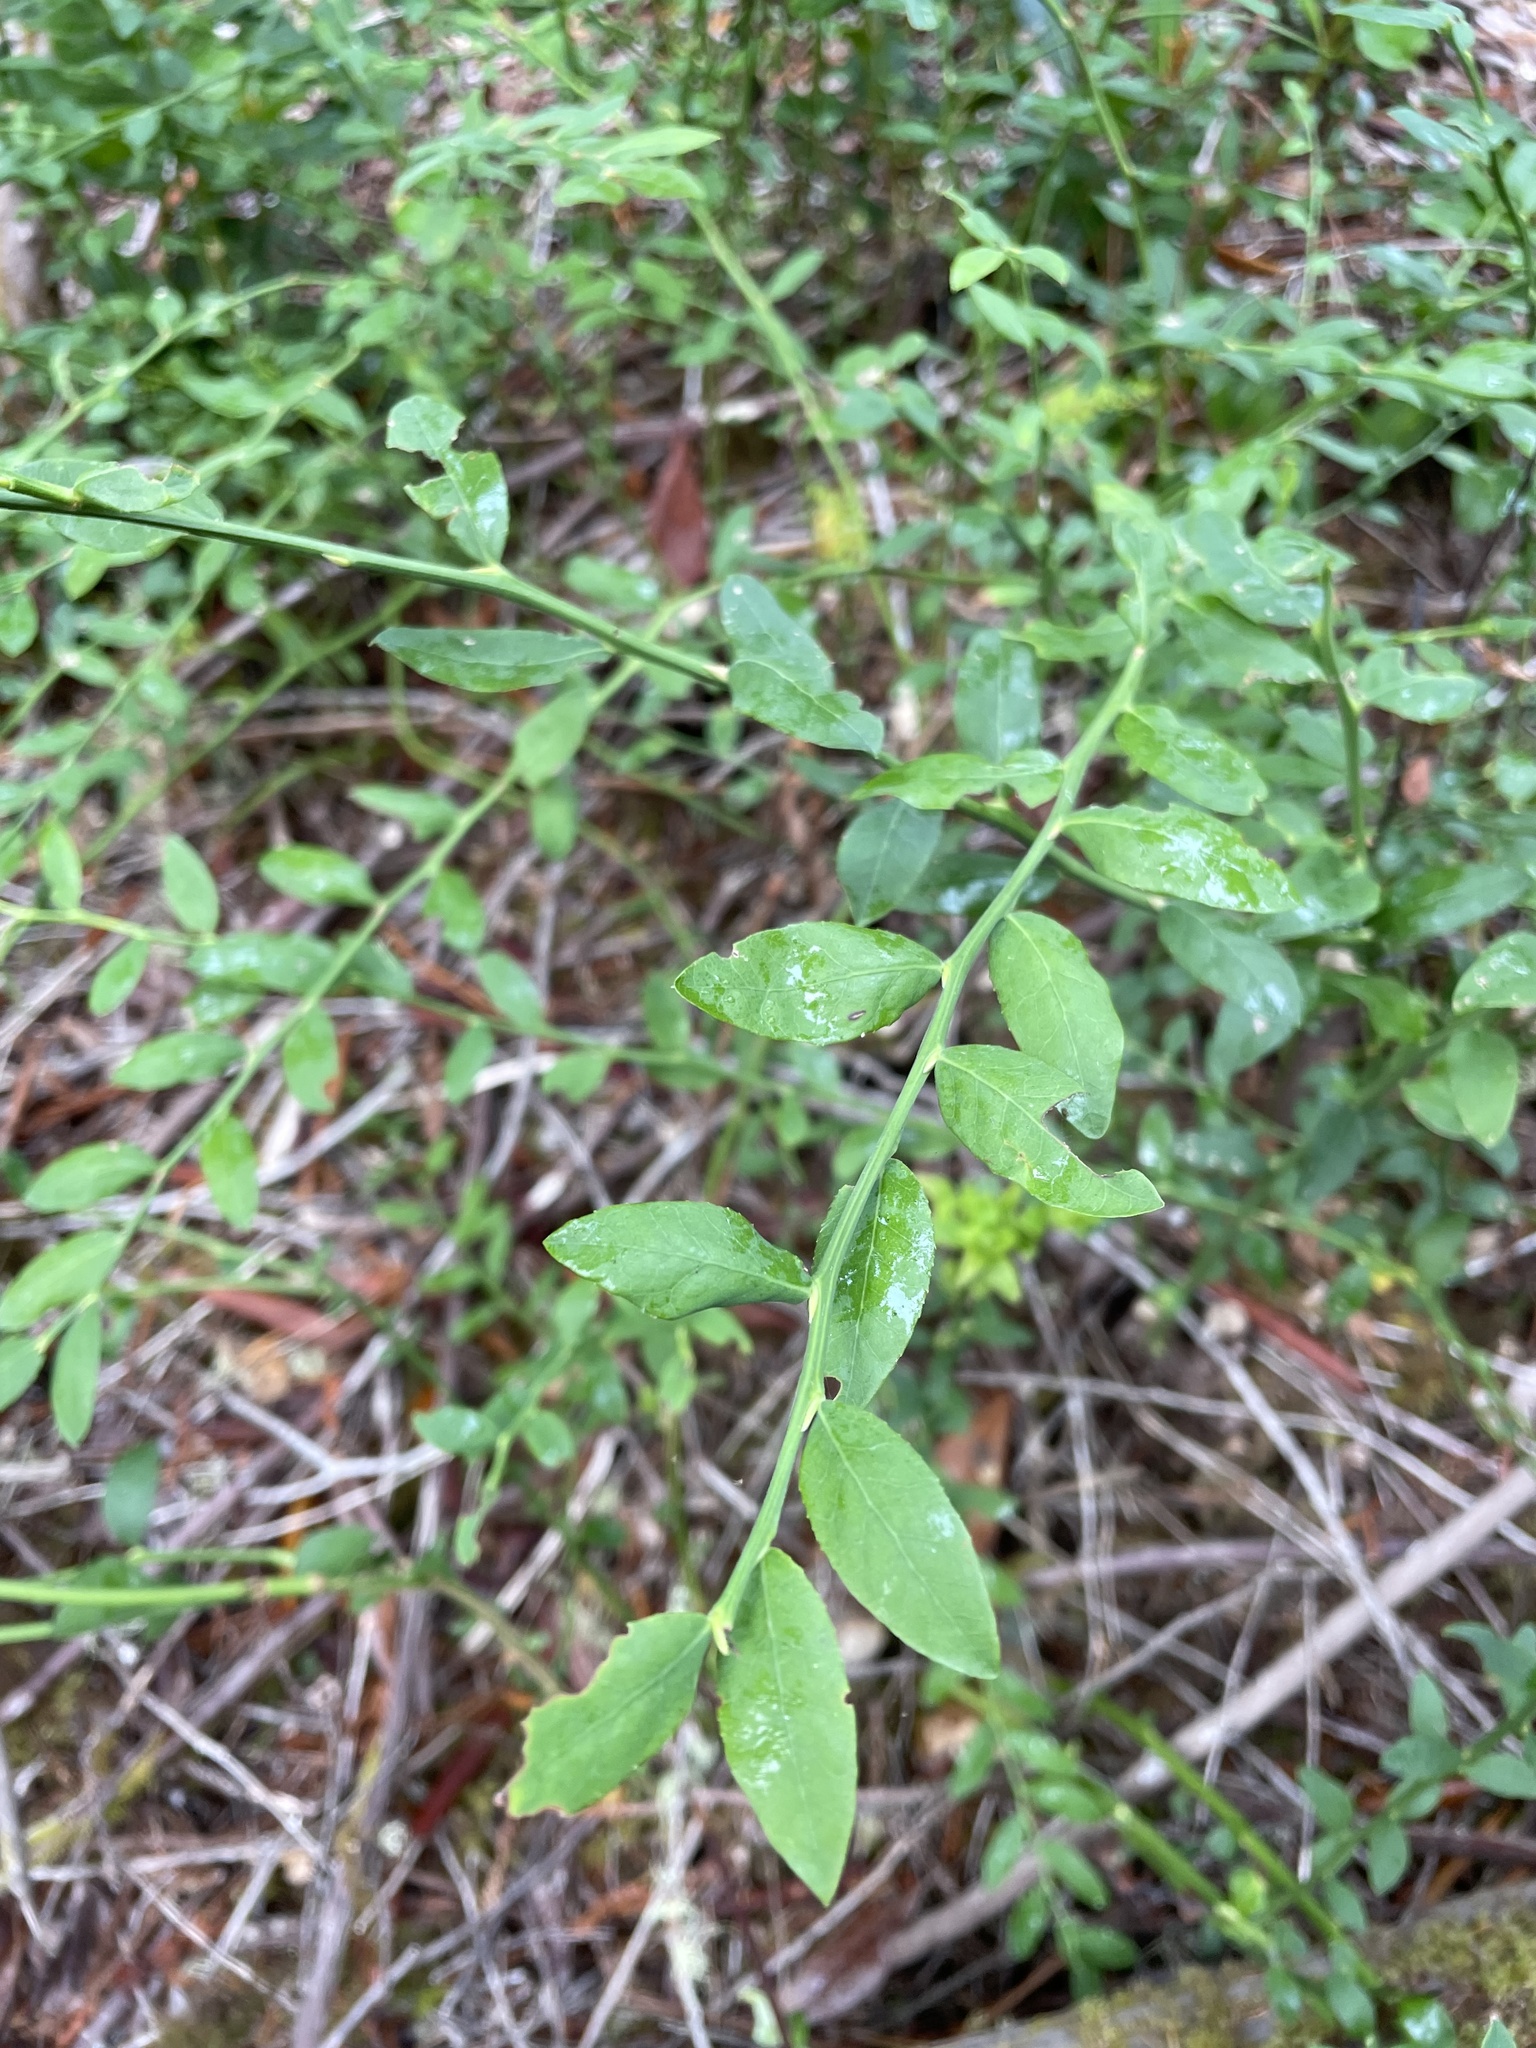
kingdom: Plantae
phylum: Tracheophyta
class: Magnoliopsida
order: Ericales
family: Ericaceae
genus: Vaccinium
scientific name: Vaccinium parvifolium
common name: Red-huckleberry
